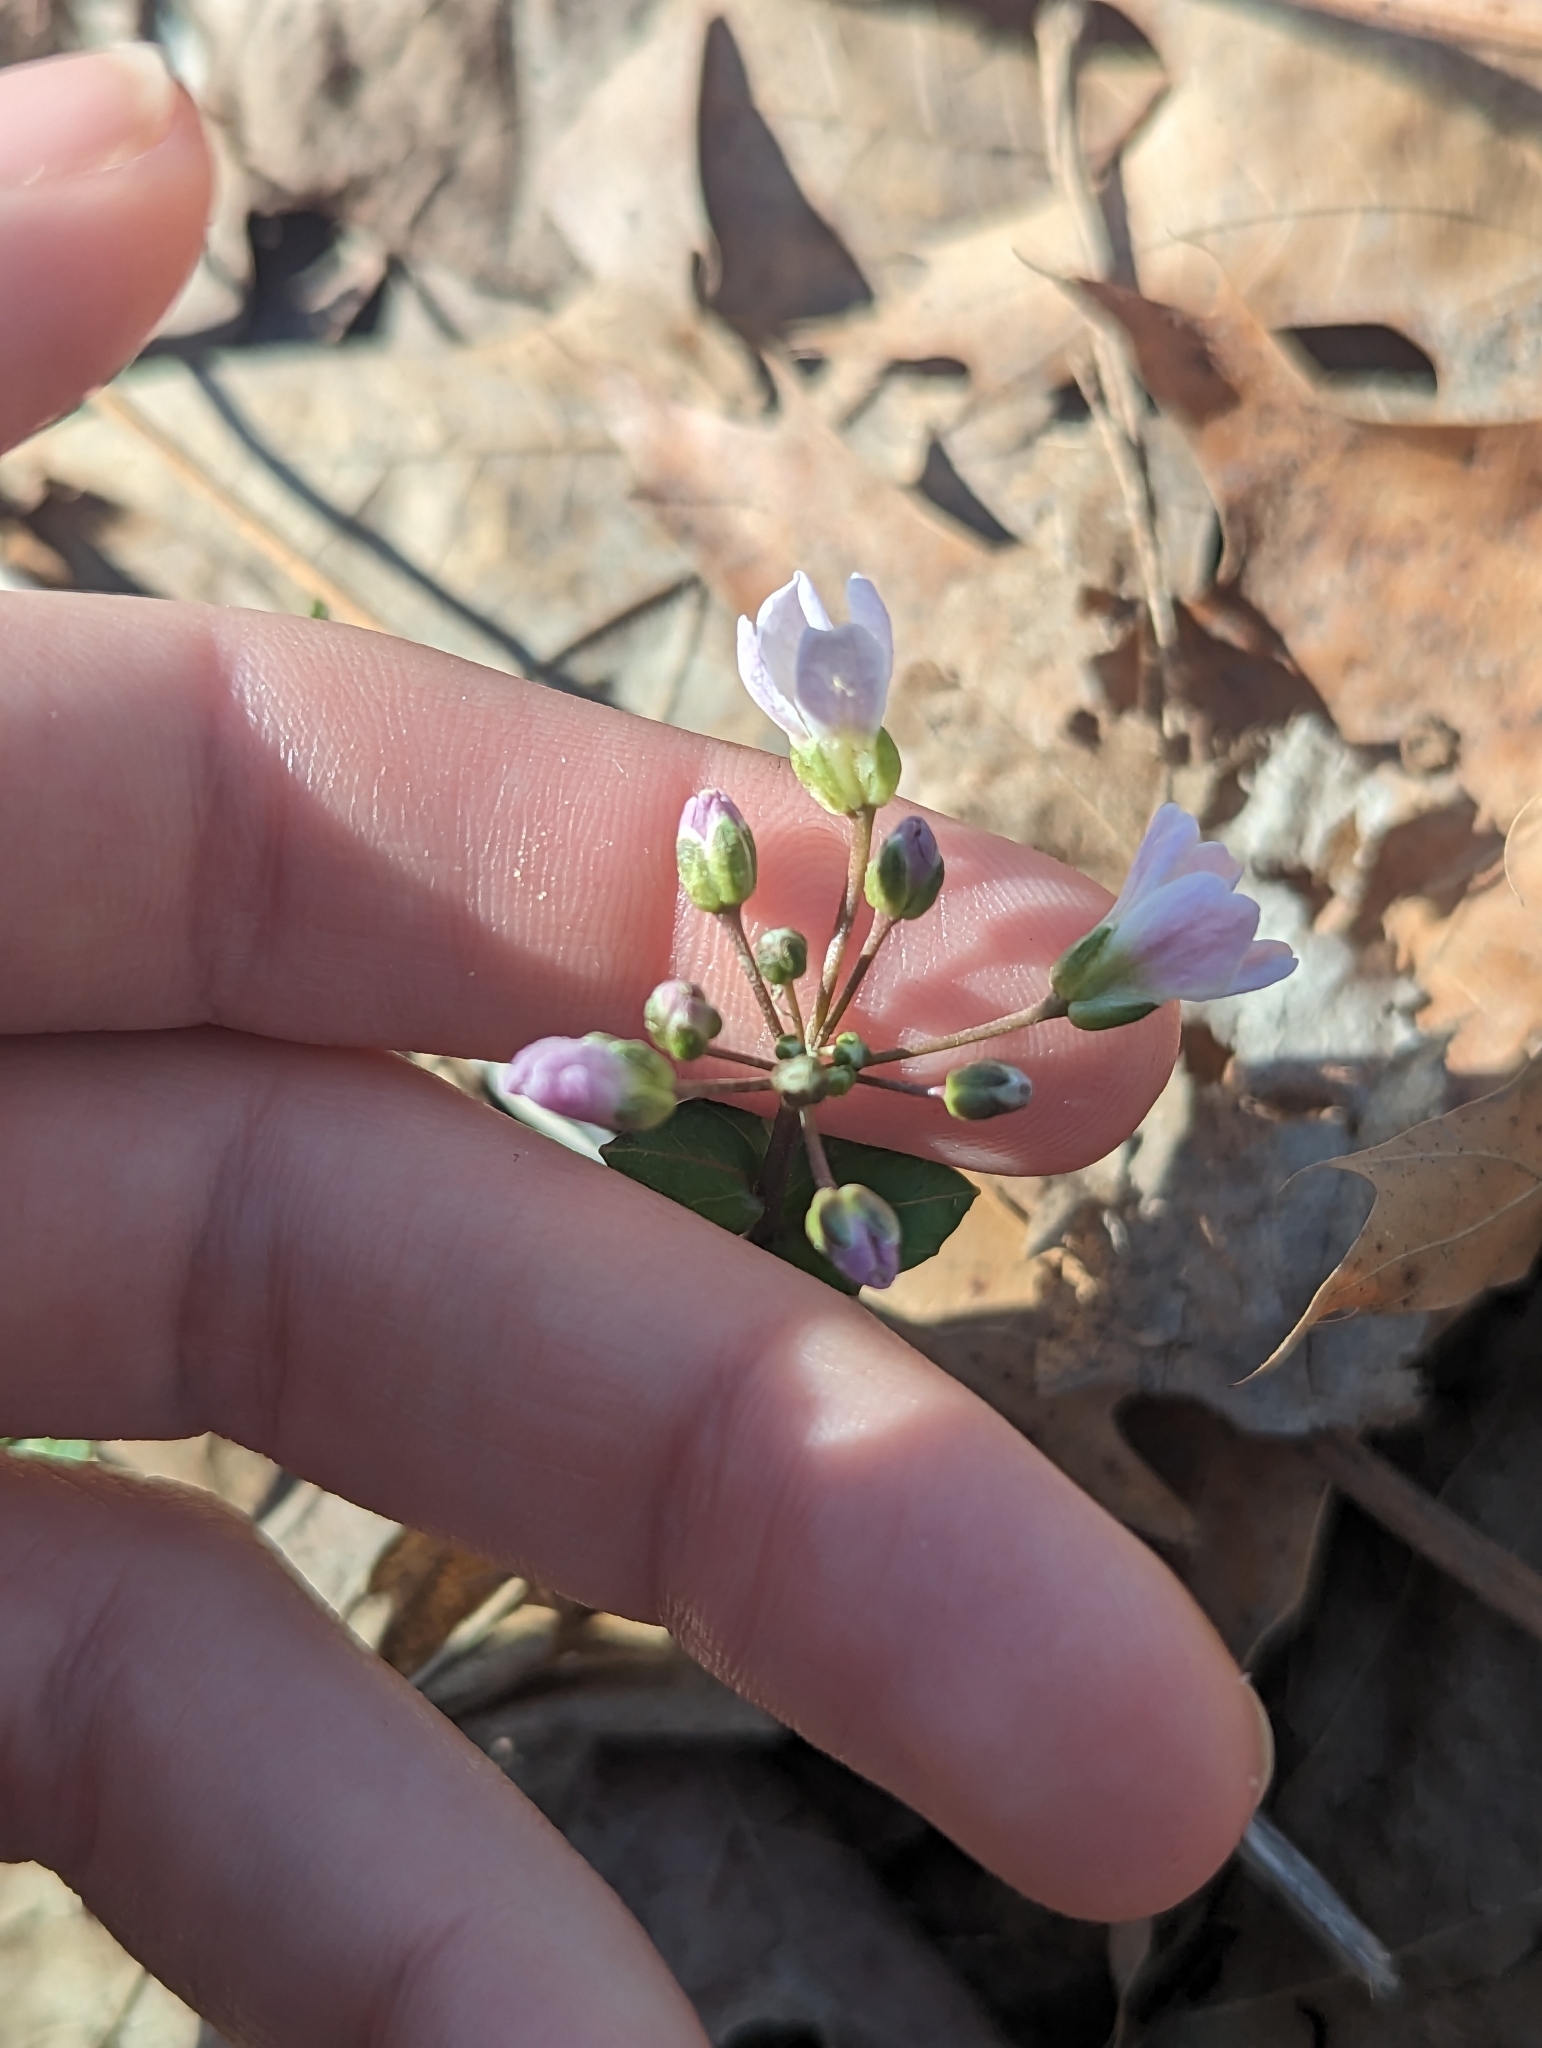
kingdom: Plantae
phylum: Tracheophyta
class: Magnoliopsida
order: Brassicales
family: Brassicaceae
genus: Cardamine
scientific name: Cardamine douglassii
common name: Purple cress
